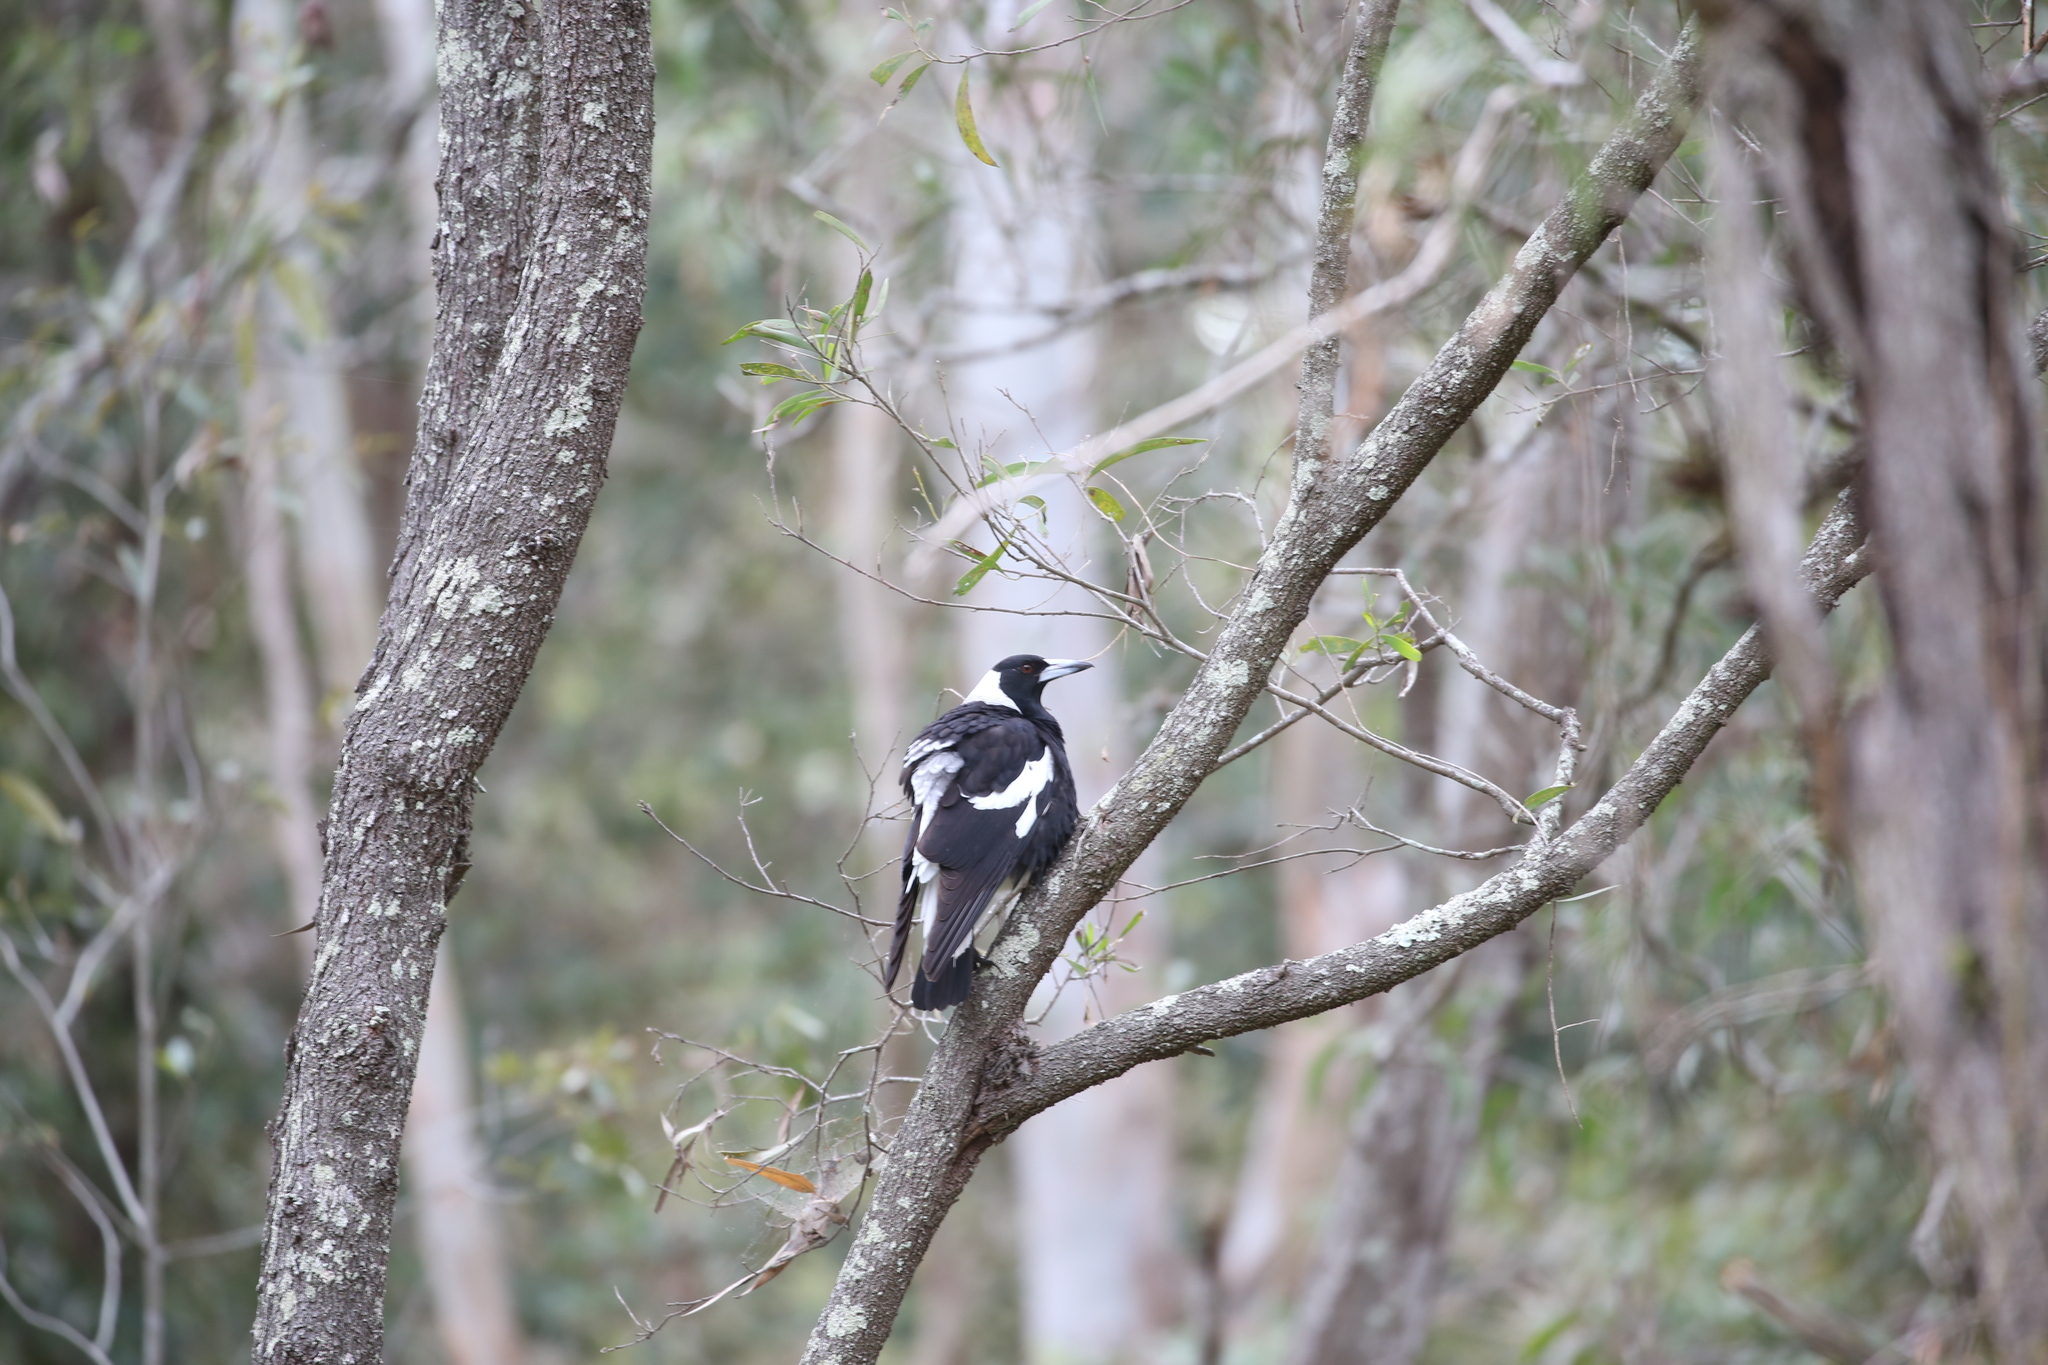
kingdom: Animalia
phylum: Chordata
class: Aves
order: Passeriformes
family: Cracticidae
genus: Gymnorhina
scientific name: Gymnorhina tibicen
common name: Australian magpie
